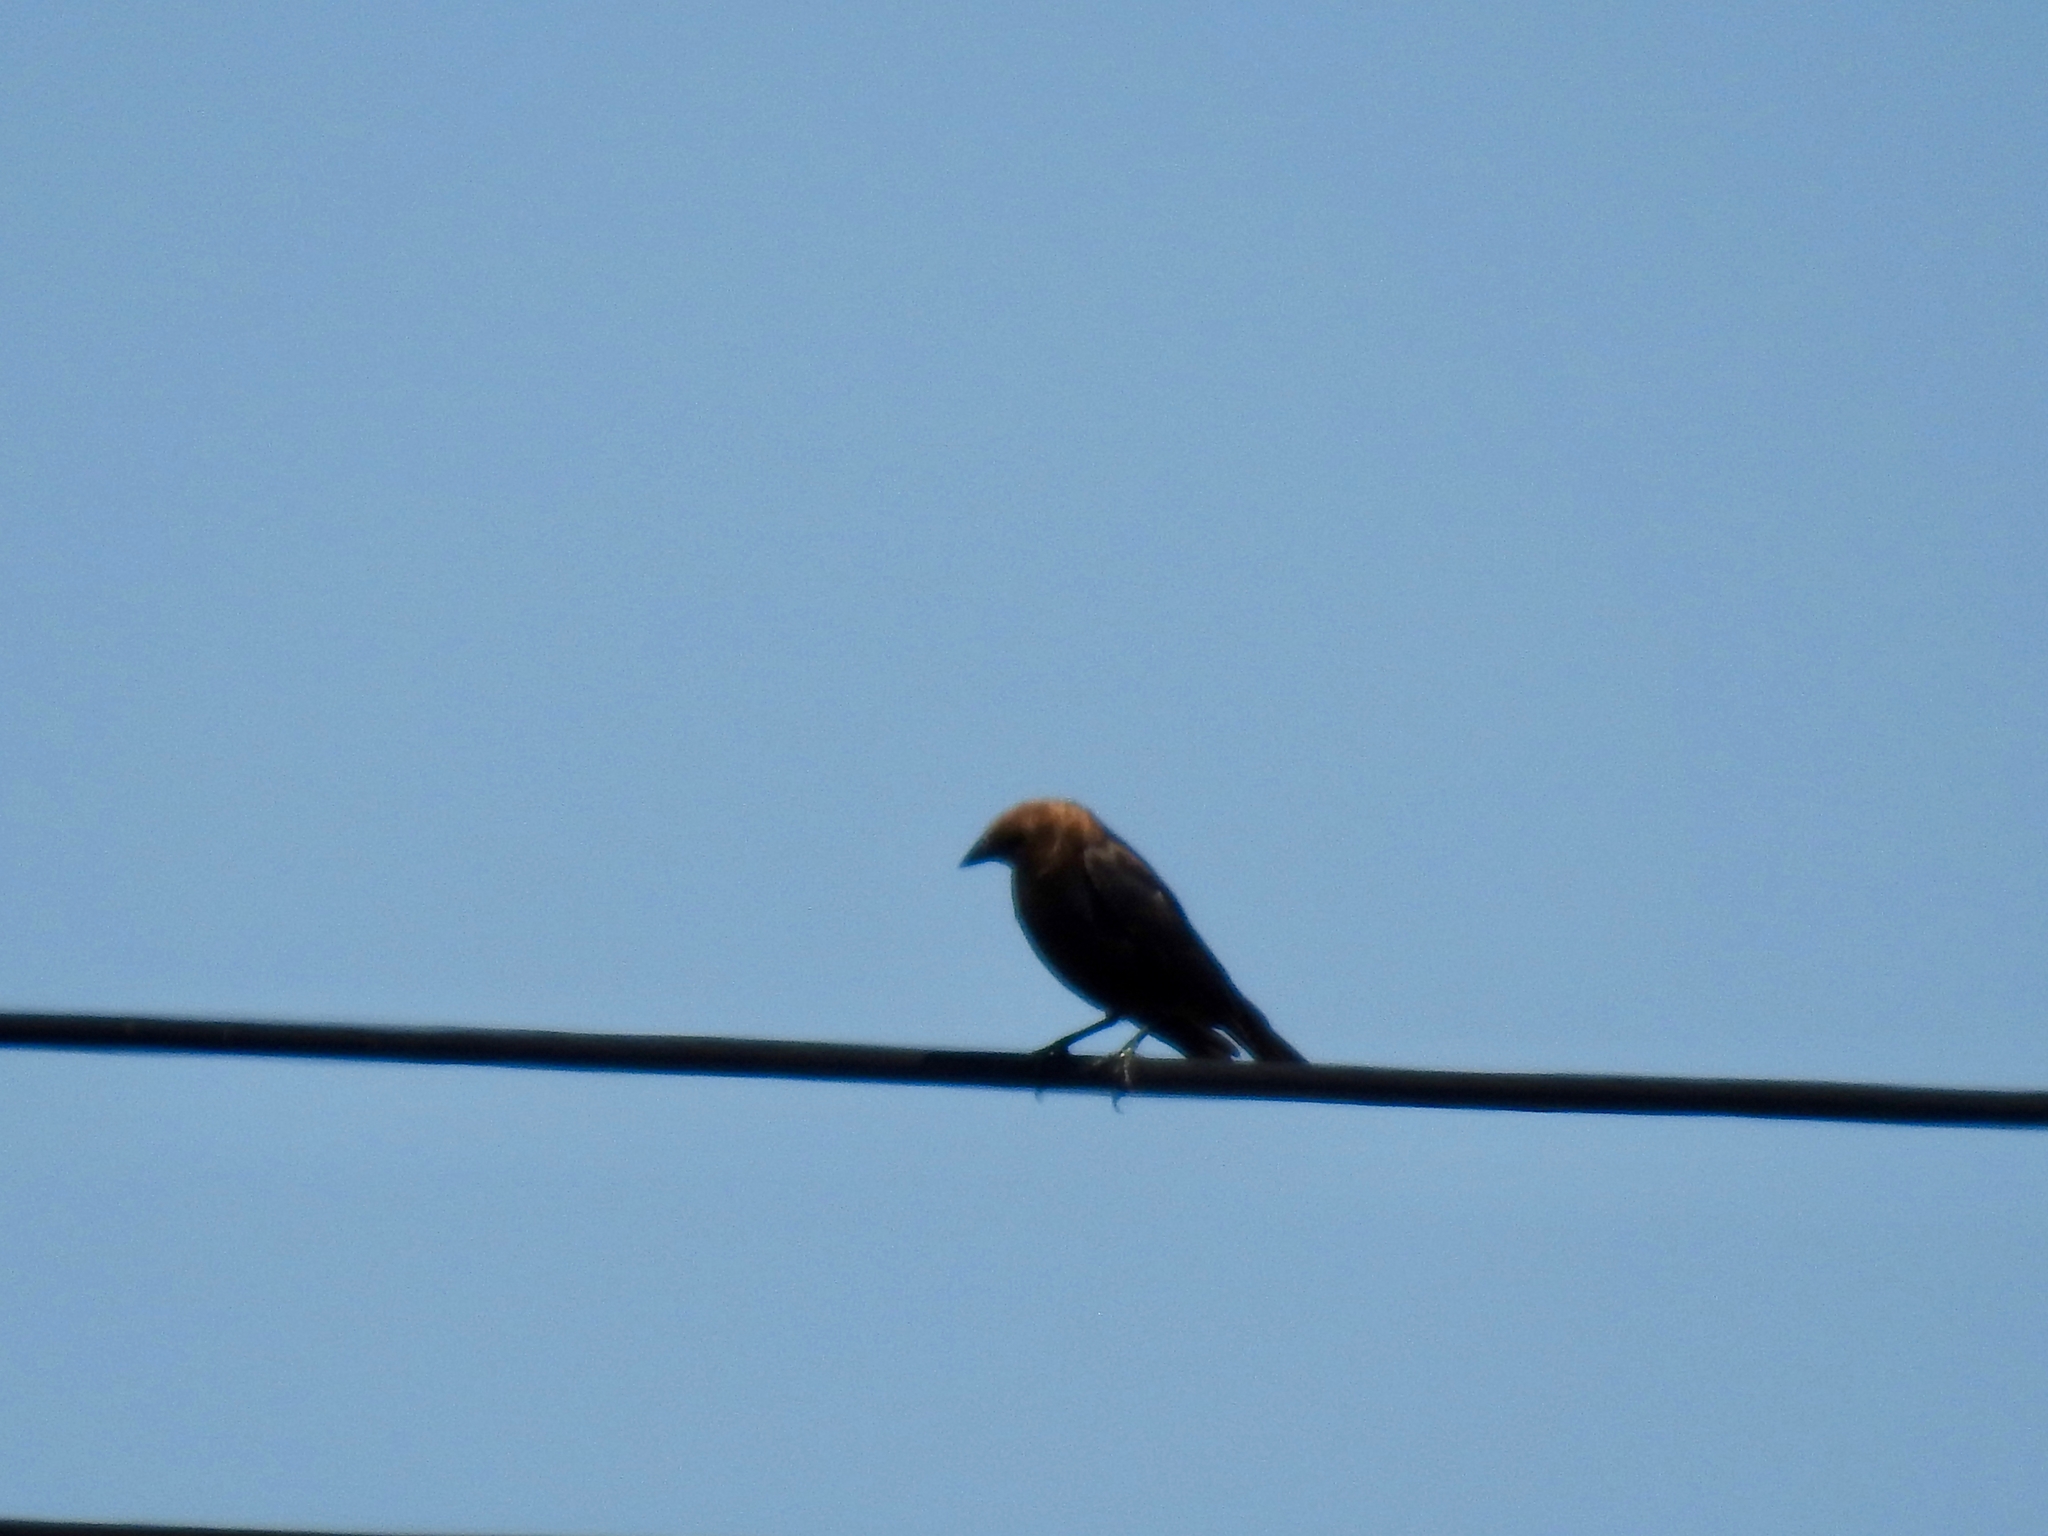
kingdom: Animalia
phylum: Chordata
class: Aves
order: Passeriformes
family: Icteridae
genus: Molothrus
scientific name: Molothrus ater
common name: Brown-headed cowbird
